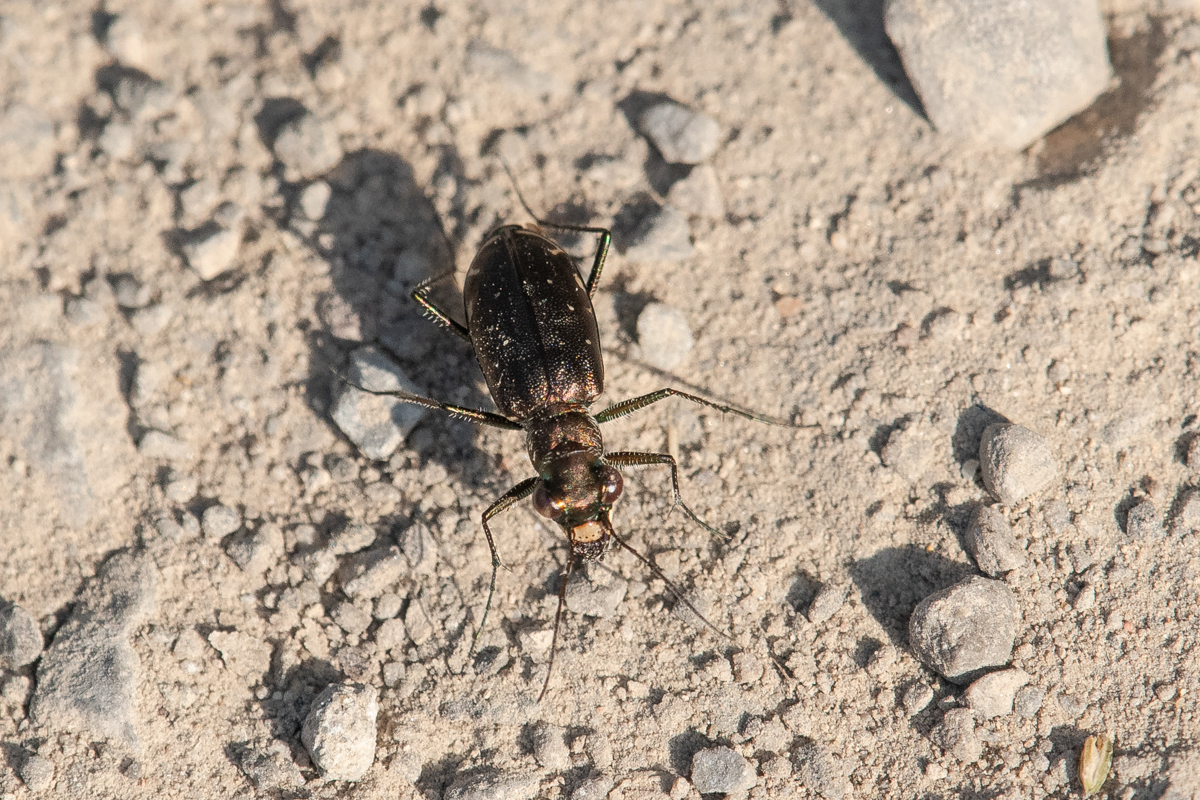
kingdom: Animalia
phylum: Arthropoda
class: Insecta
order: Coleoptera
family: Carabidae
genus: Cicindela
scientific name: Cicindela punctulata
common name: Punctured tiger beetle
